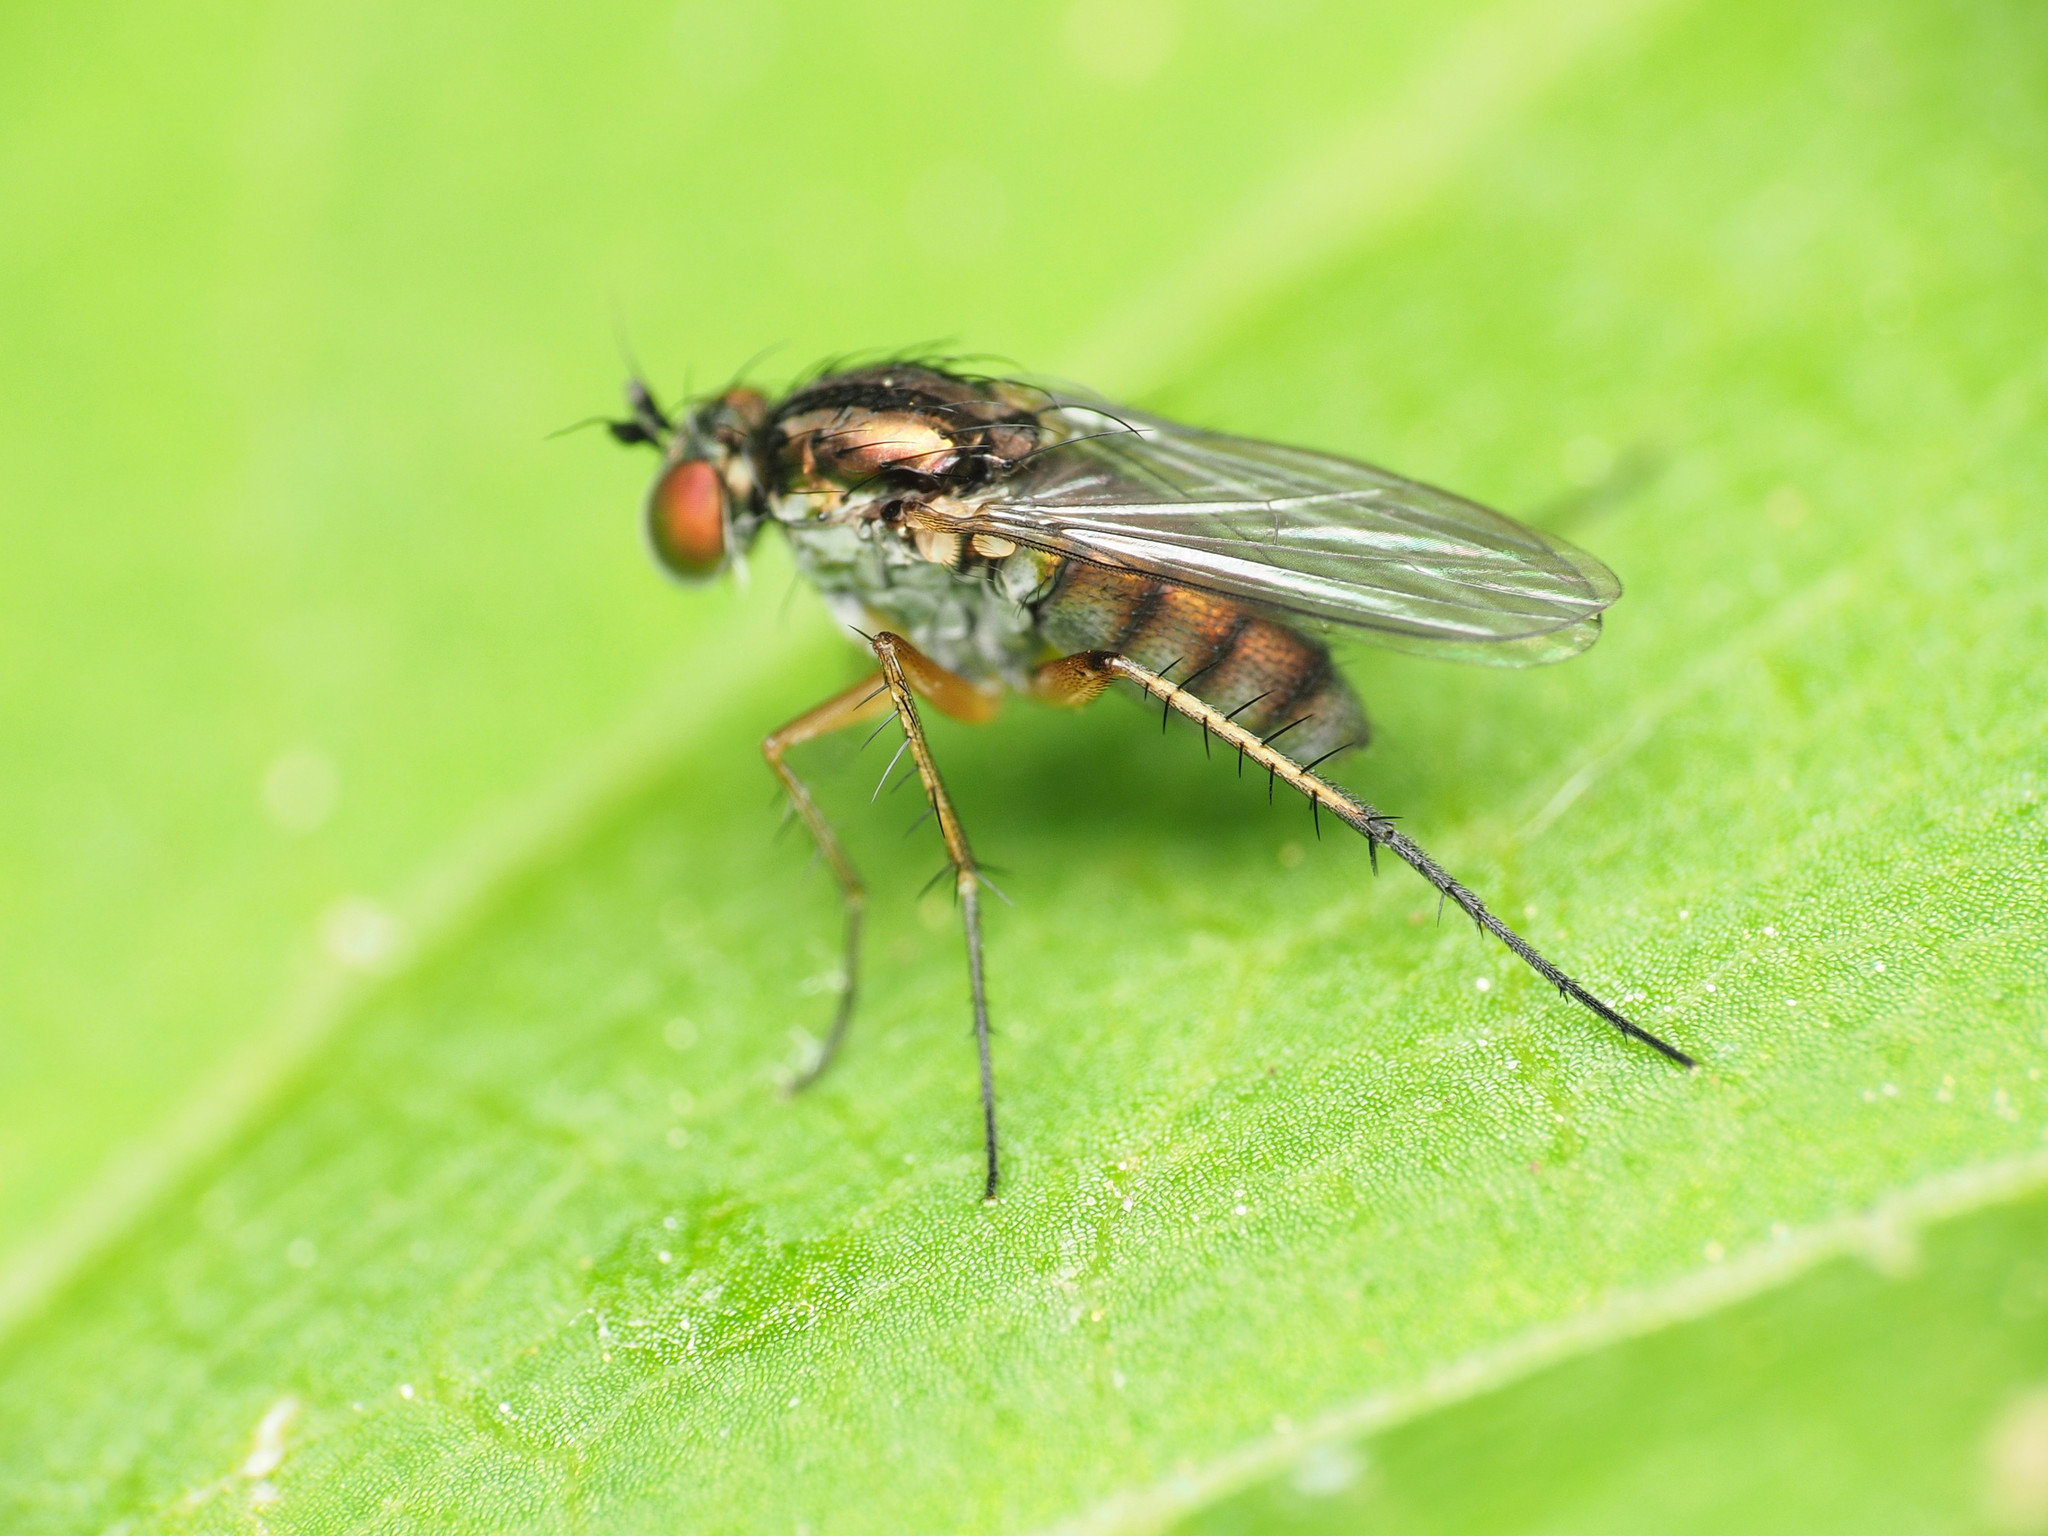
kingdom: Animalia
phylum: Arthropoda
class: Insecta
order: Diptera
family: Dolichopodidae
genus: Dolichopus
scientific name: Dolichopus comatus
